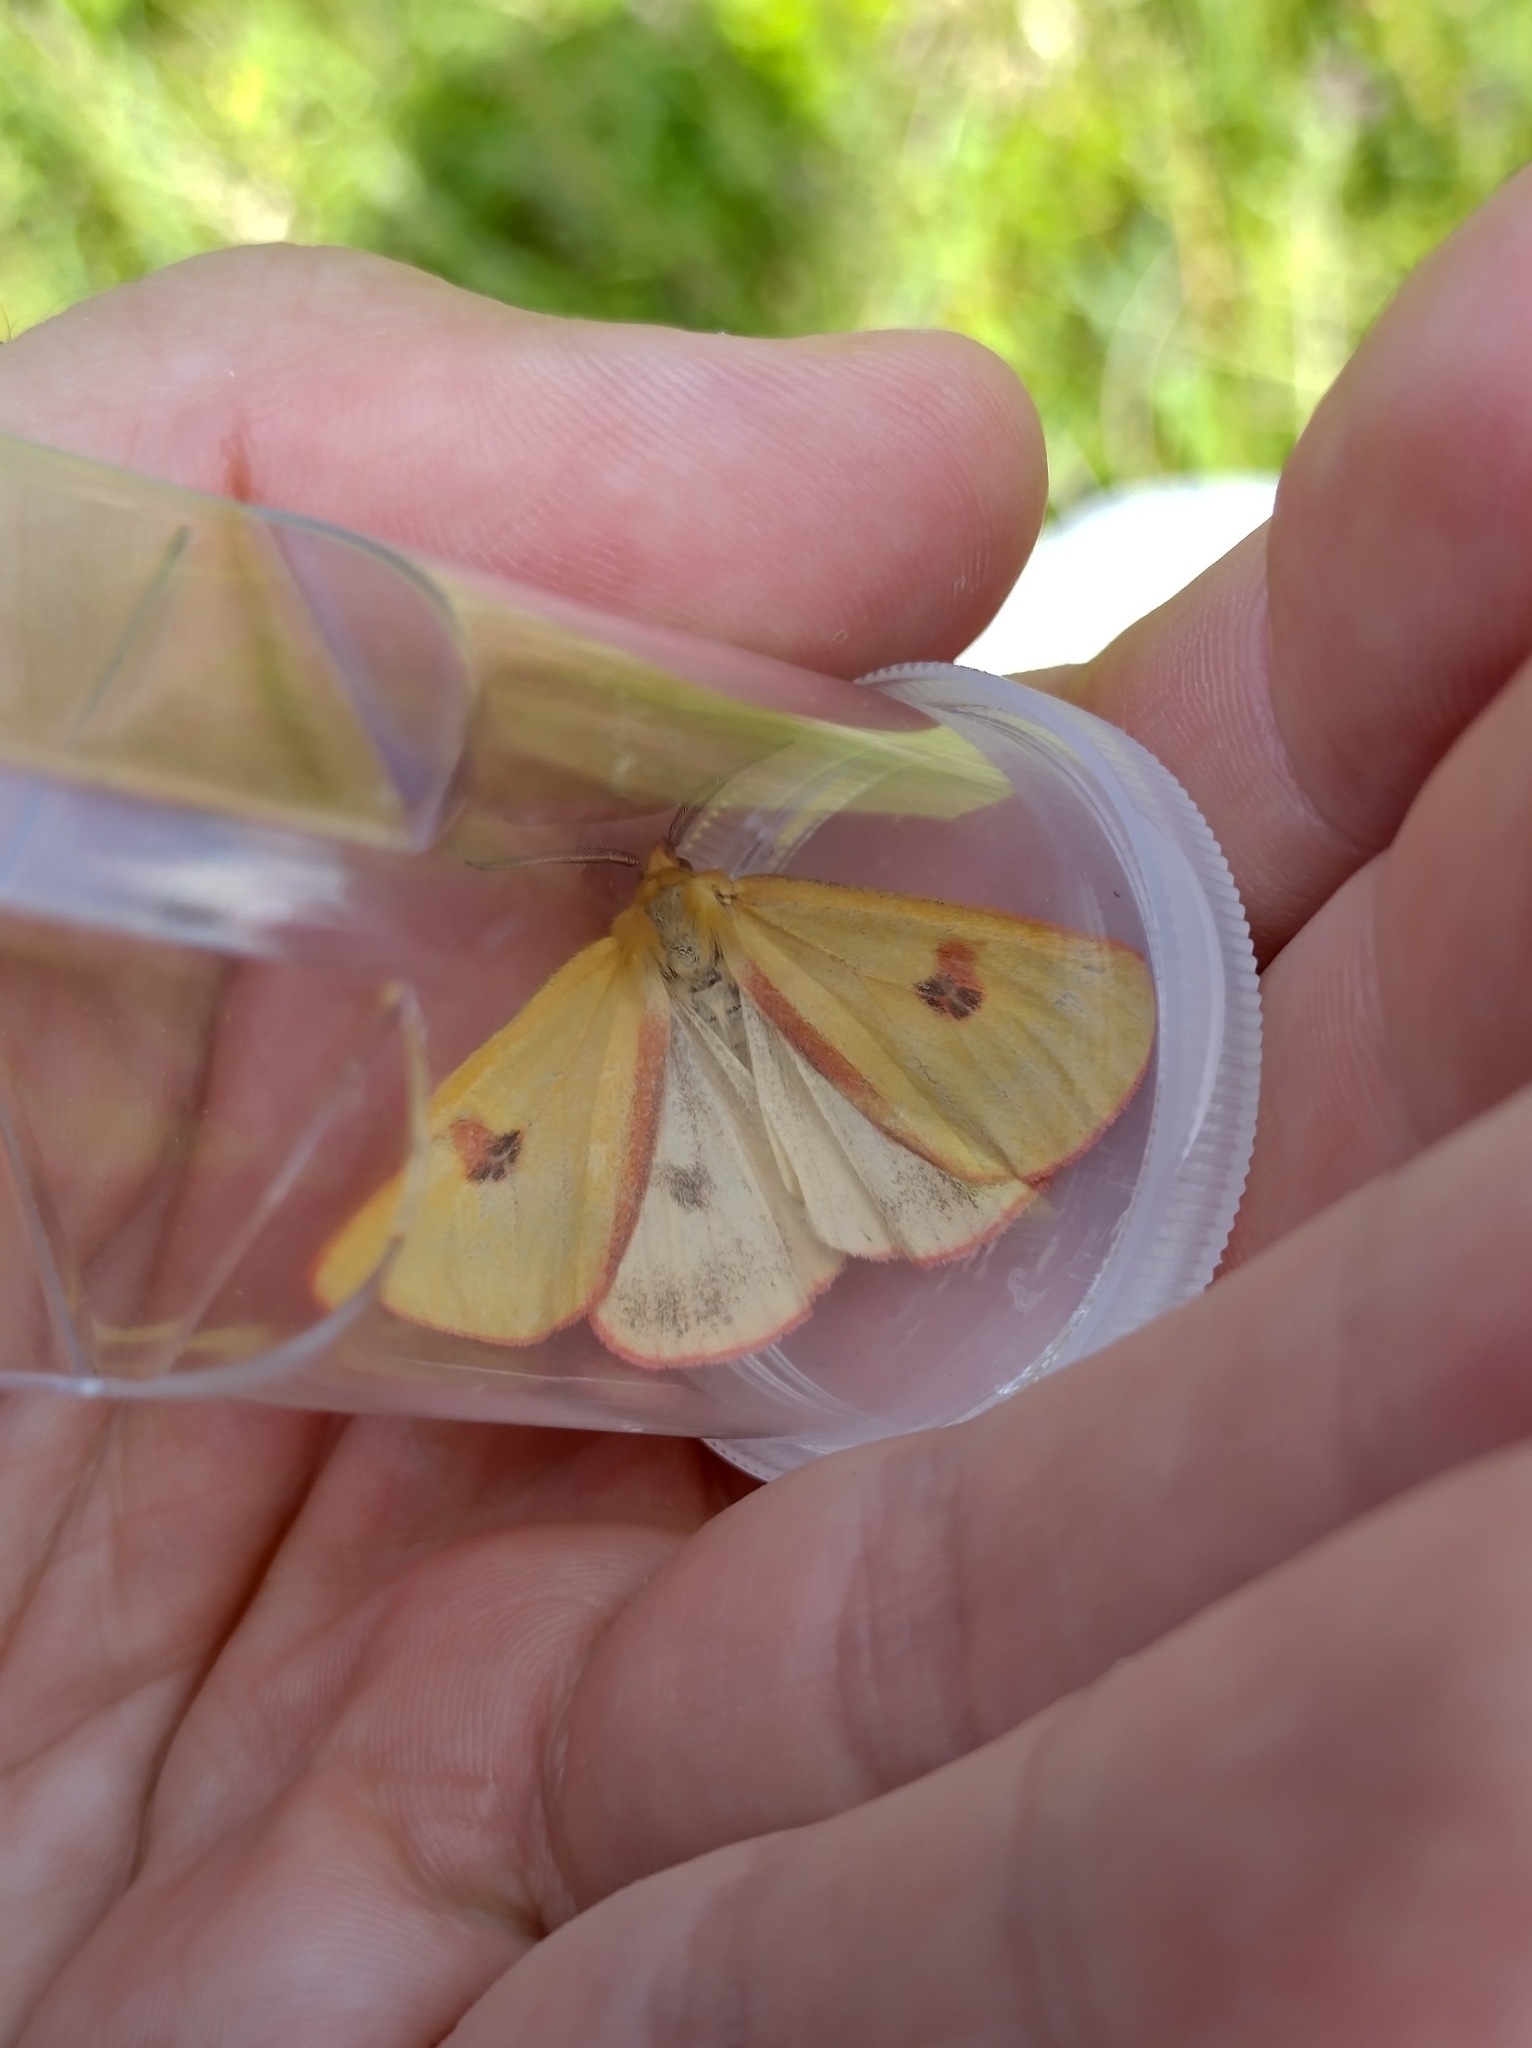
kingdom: Animalia
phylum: Arthropoda
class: Insecta
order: Lepidoptera
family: Erebidae
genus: Diacrisia
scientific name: Diacrisia sannio
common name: Clouded buff
